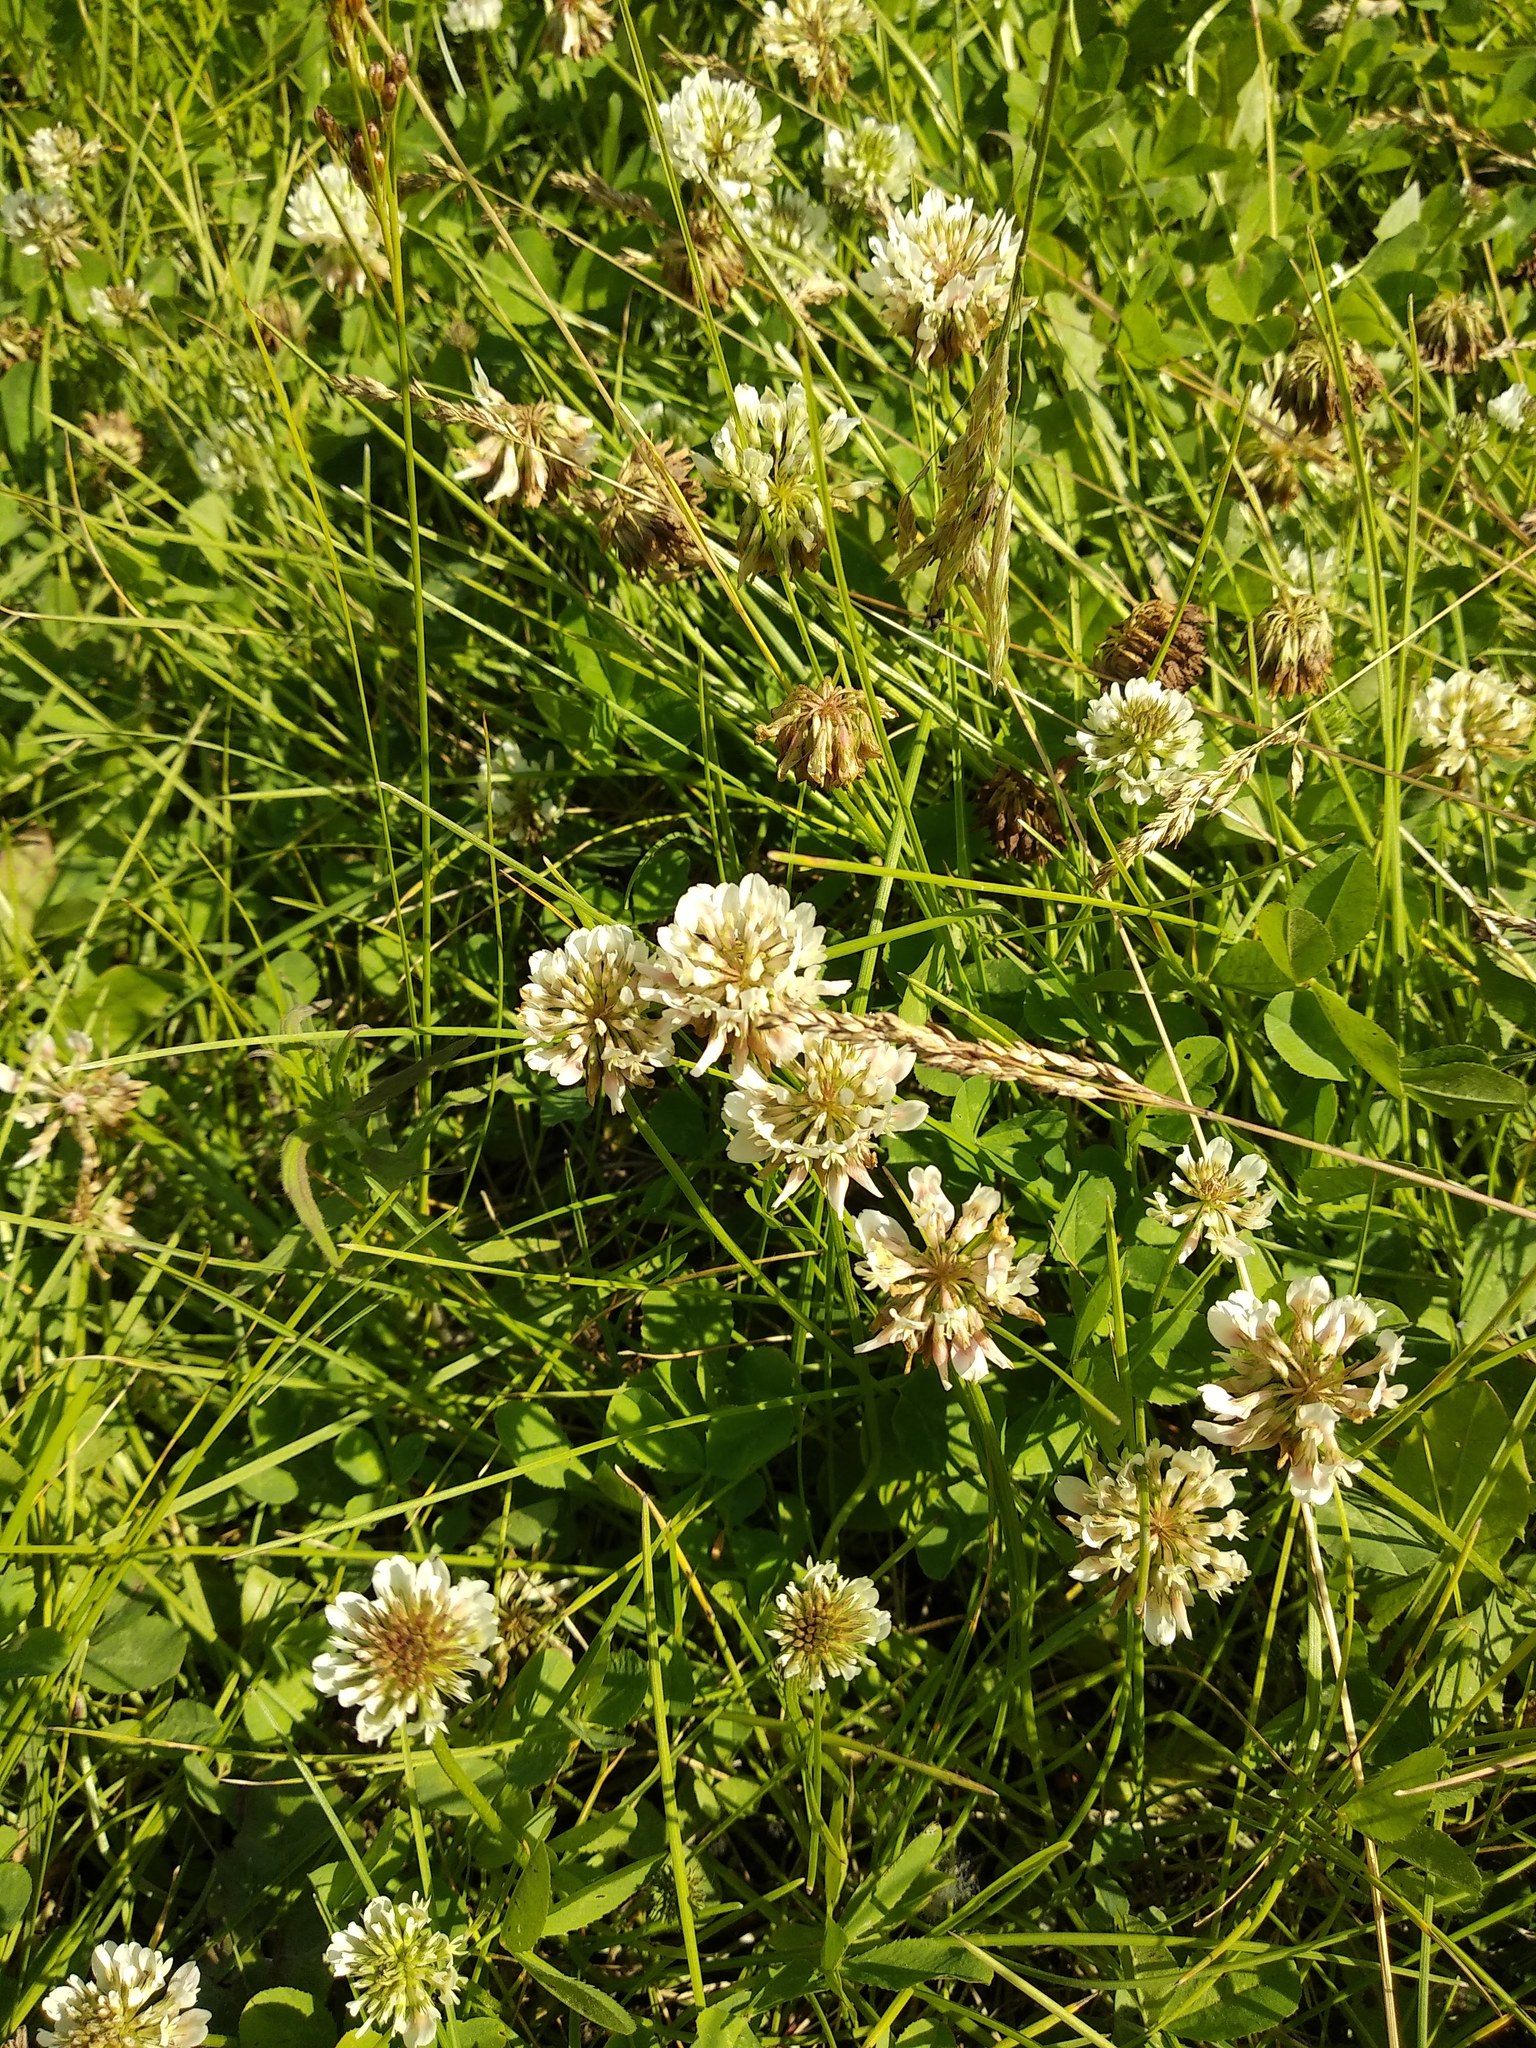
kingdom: Plantae
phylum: Tracheophyta
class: Magnoliopsida
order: Fabales
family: Fabaceae
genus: Trifolium
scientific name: Trifolium repens
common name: White clover
